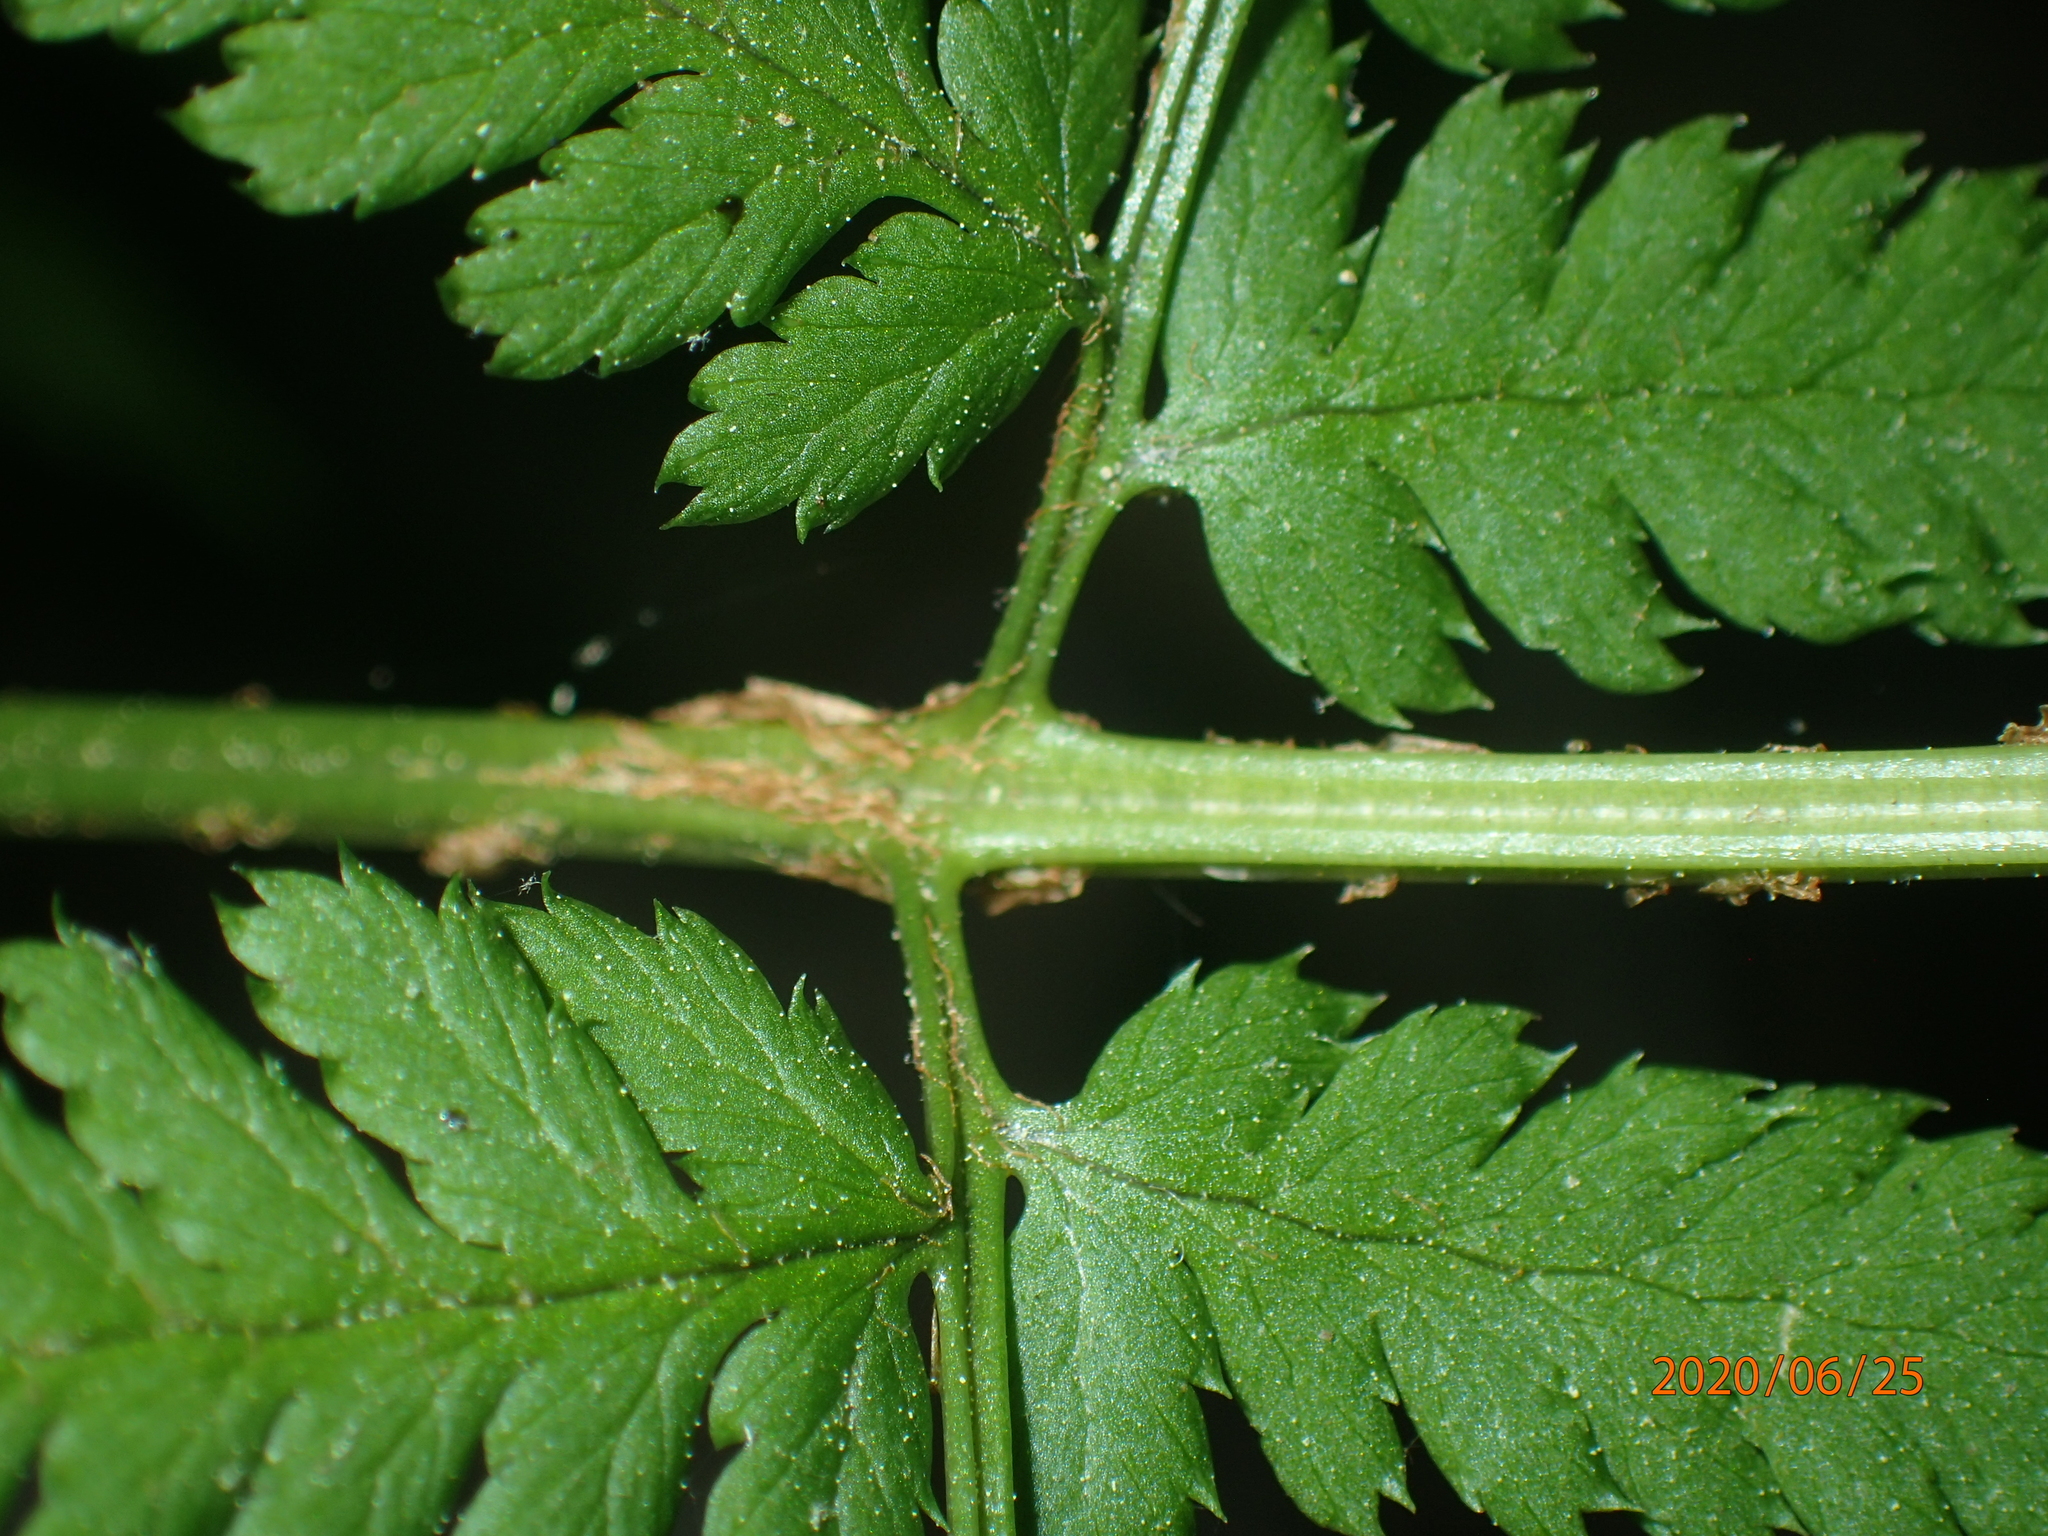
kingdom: Plantae
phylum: Tracheophyta
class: Polypodiopsida
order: Polypodiales
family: Dryopteridaceae
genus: Dryopteris
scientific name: Dryopteris carthusiana
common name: Narrow buckler-fern
